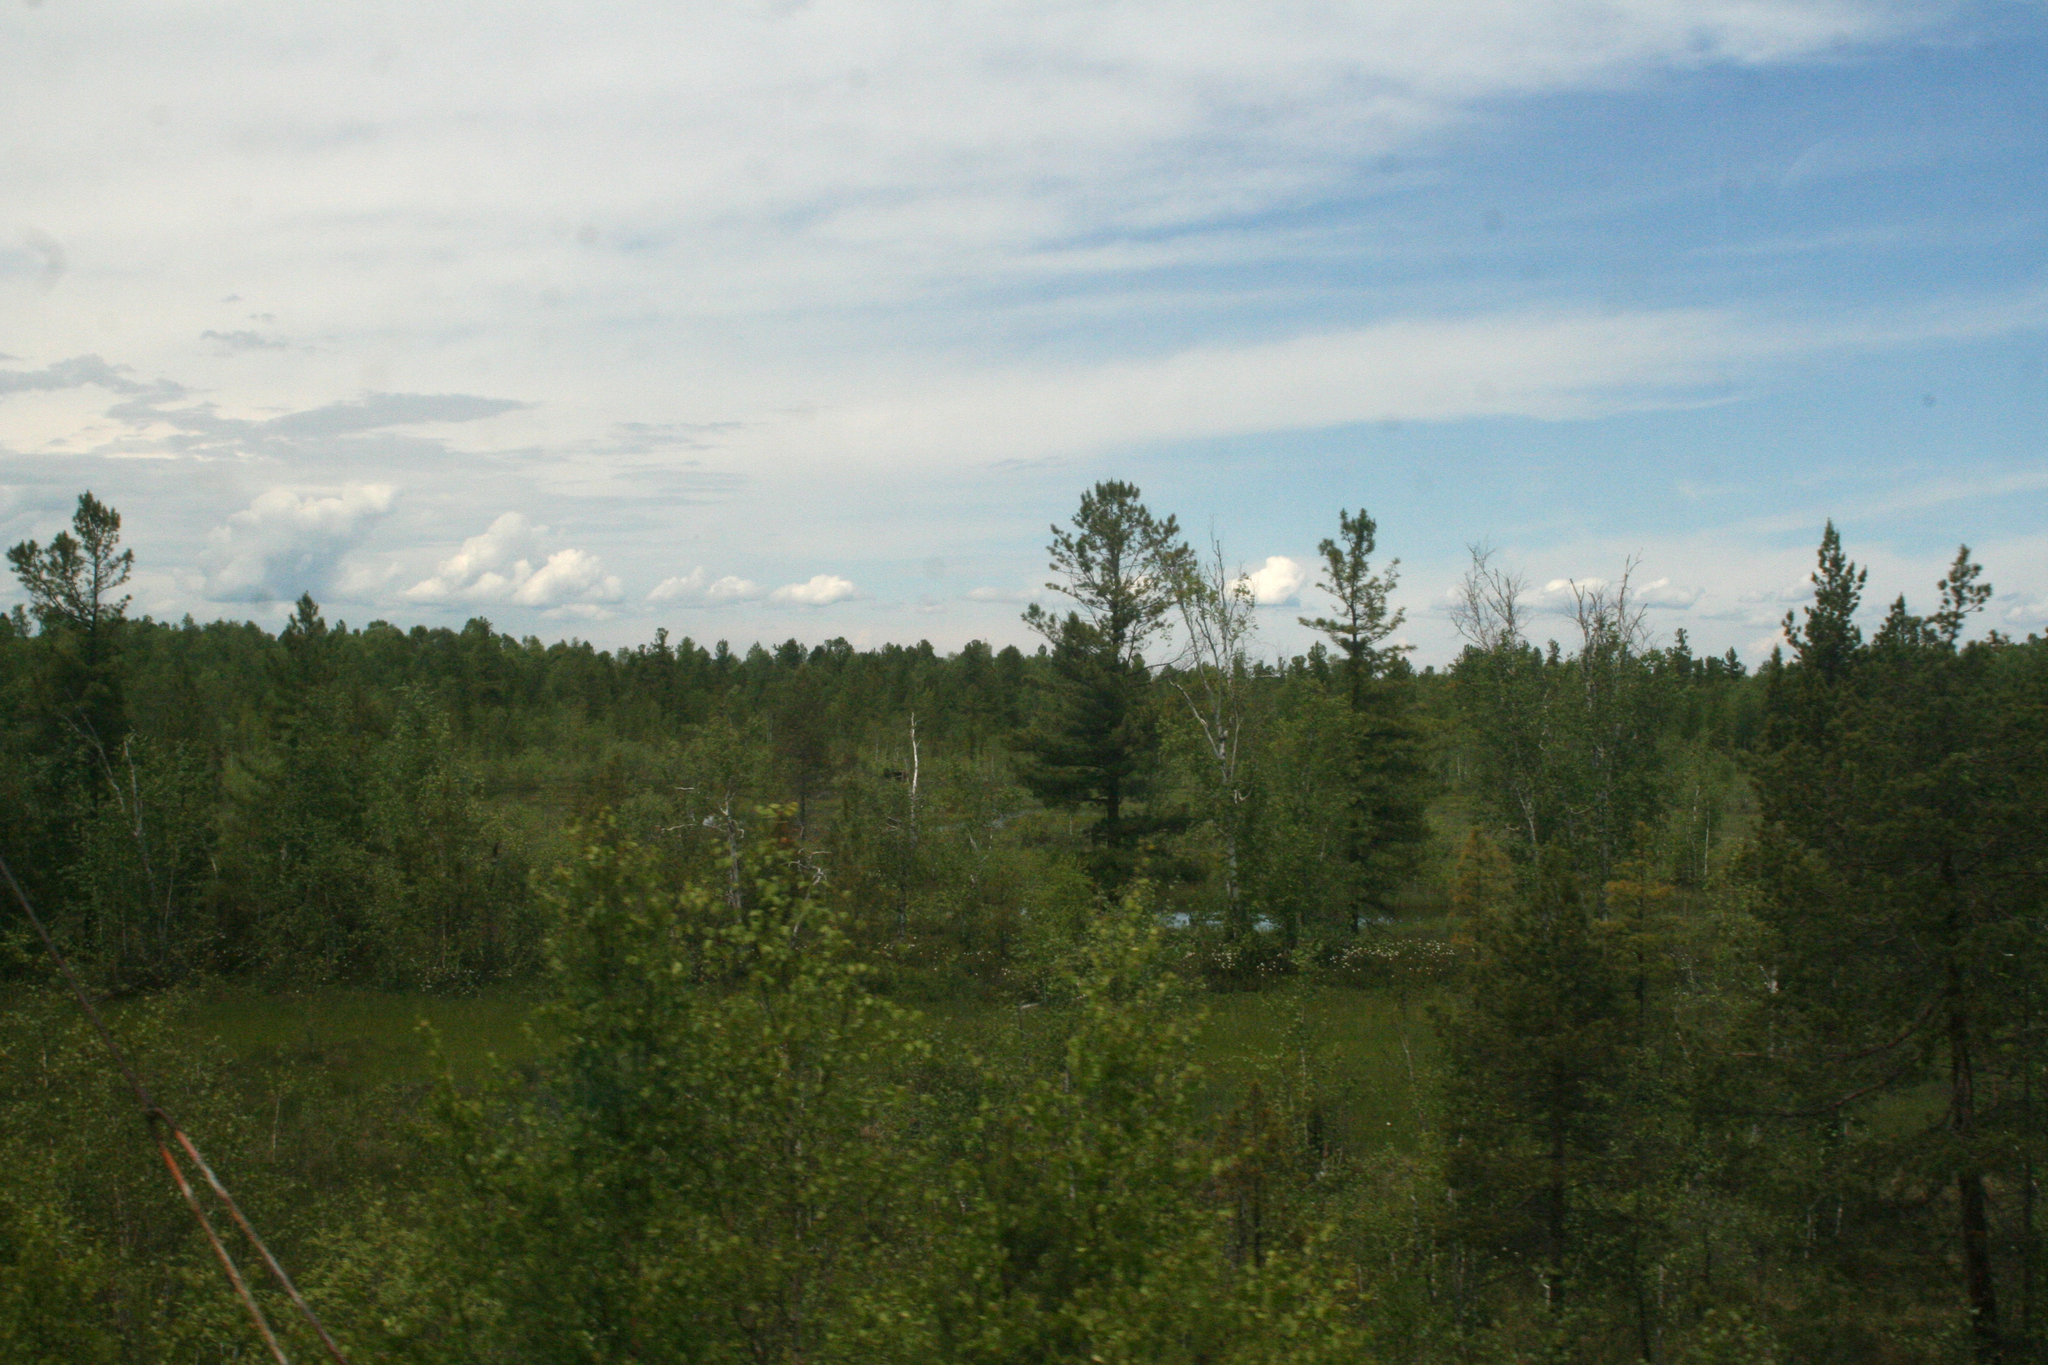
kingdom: Plantae
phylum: Tracheophyta
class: Pinopsida
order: Pinales
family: Pinaceae
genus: Pinus
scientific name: Pinus sibirica
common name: Siberian pine
